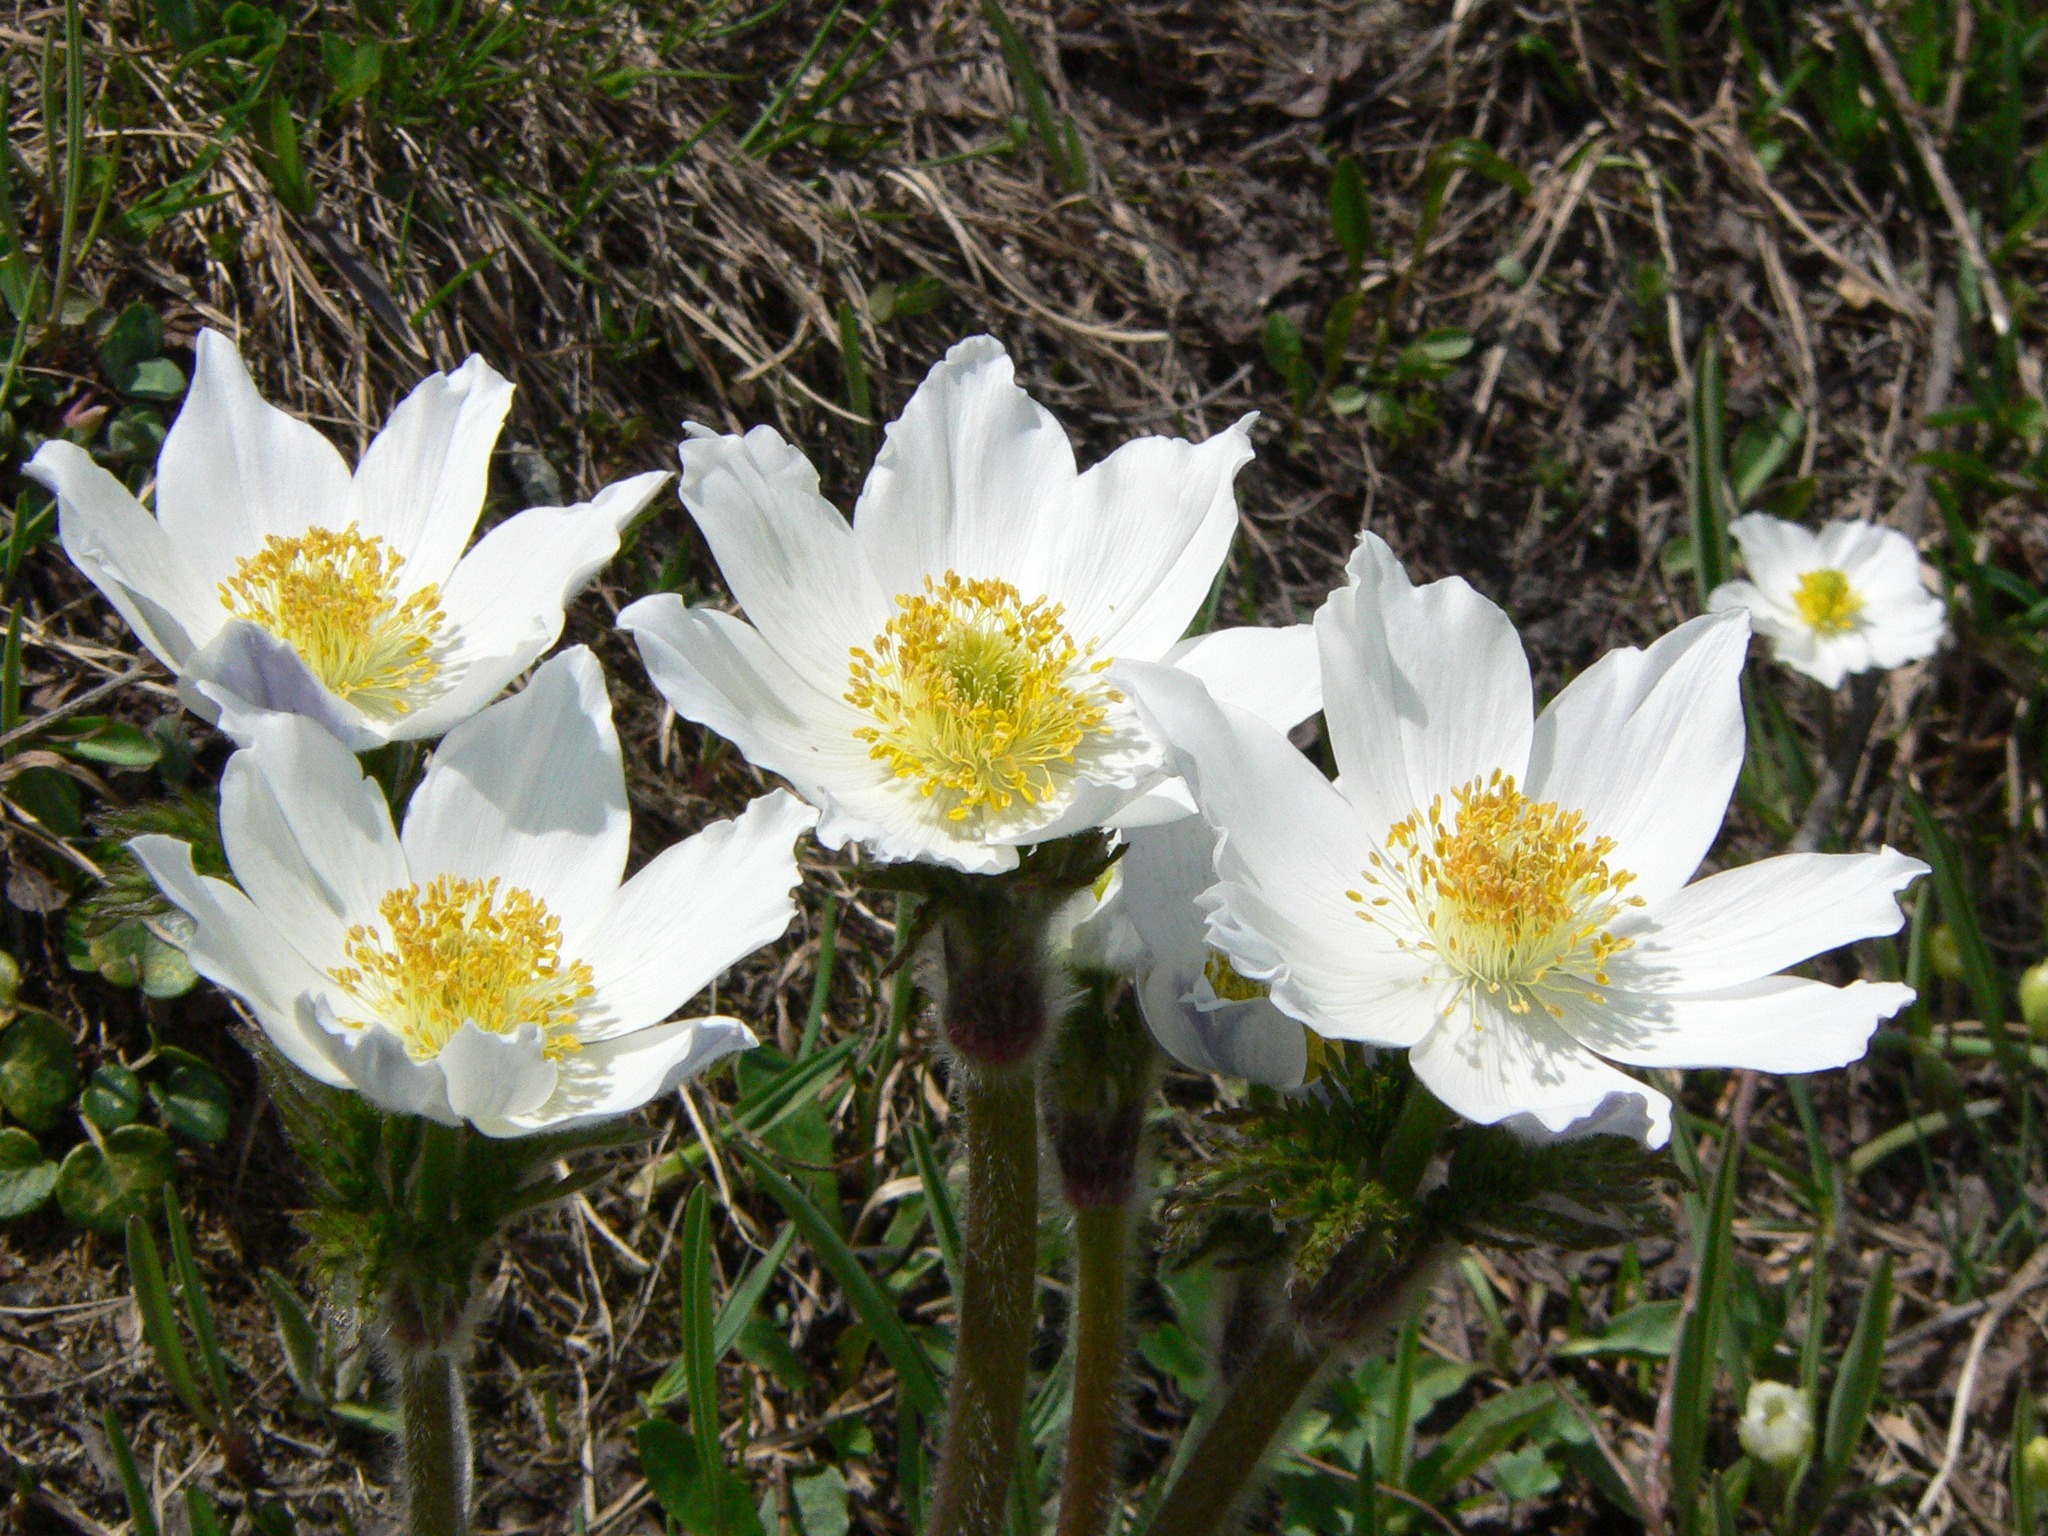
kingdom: Plantae
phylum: Tracheophyta
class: Magnoliopsida
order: Ranunculales
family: Ranunculaceae
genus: Pulsatilla
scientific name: Pulsatilla alpina
